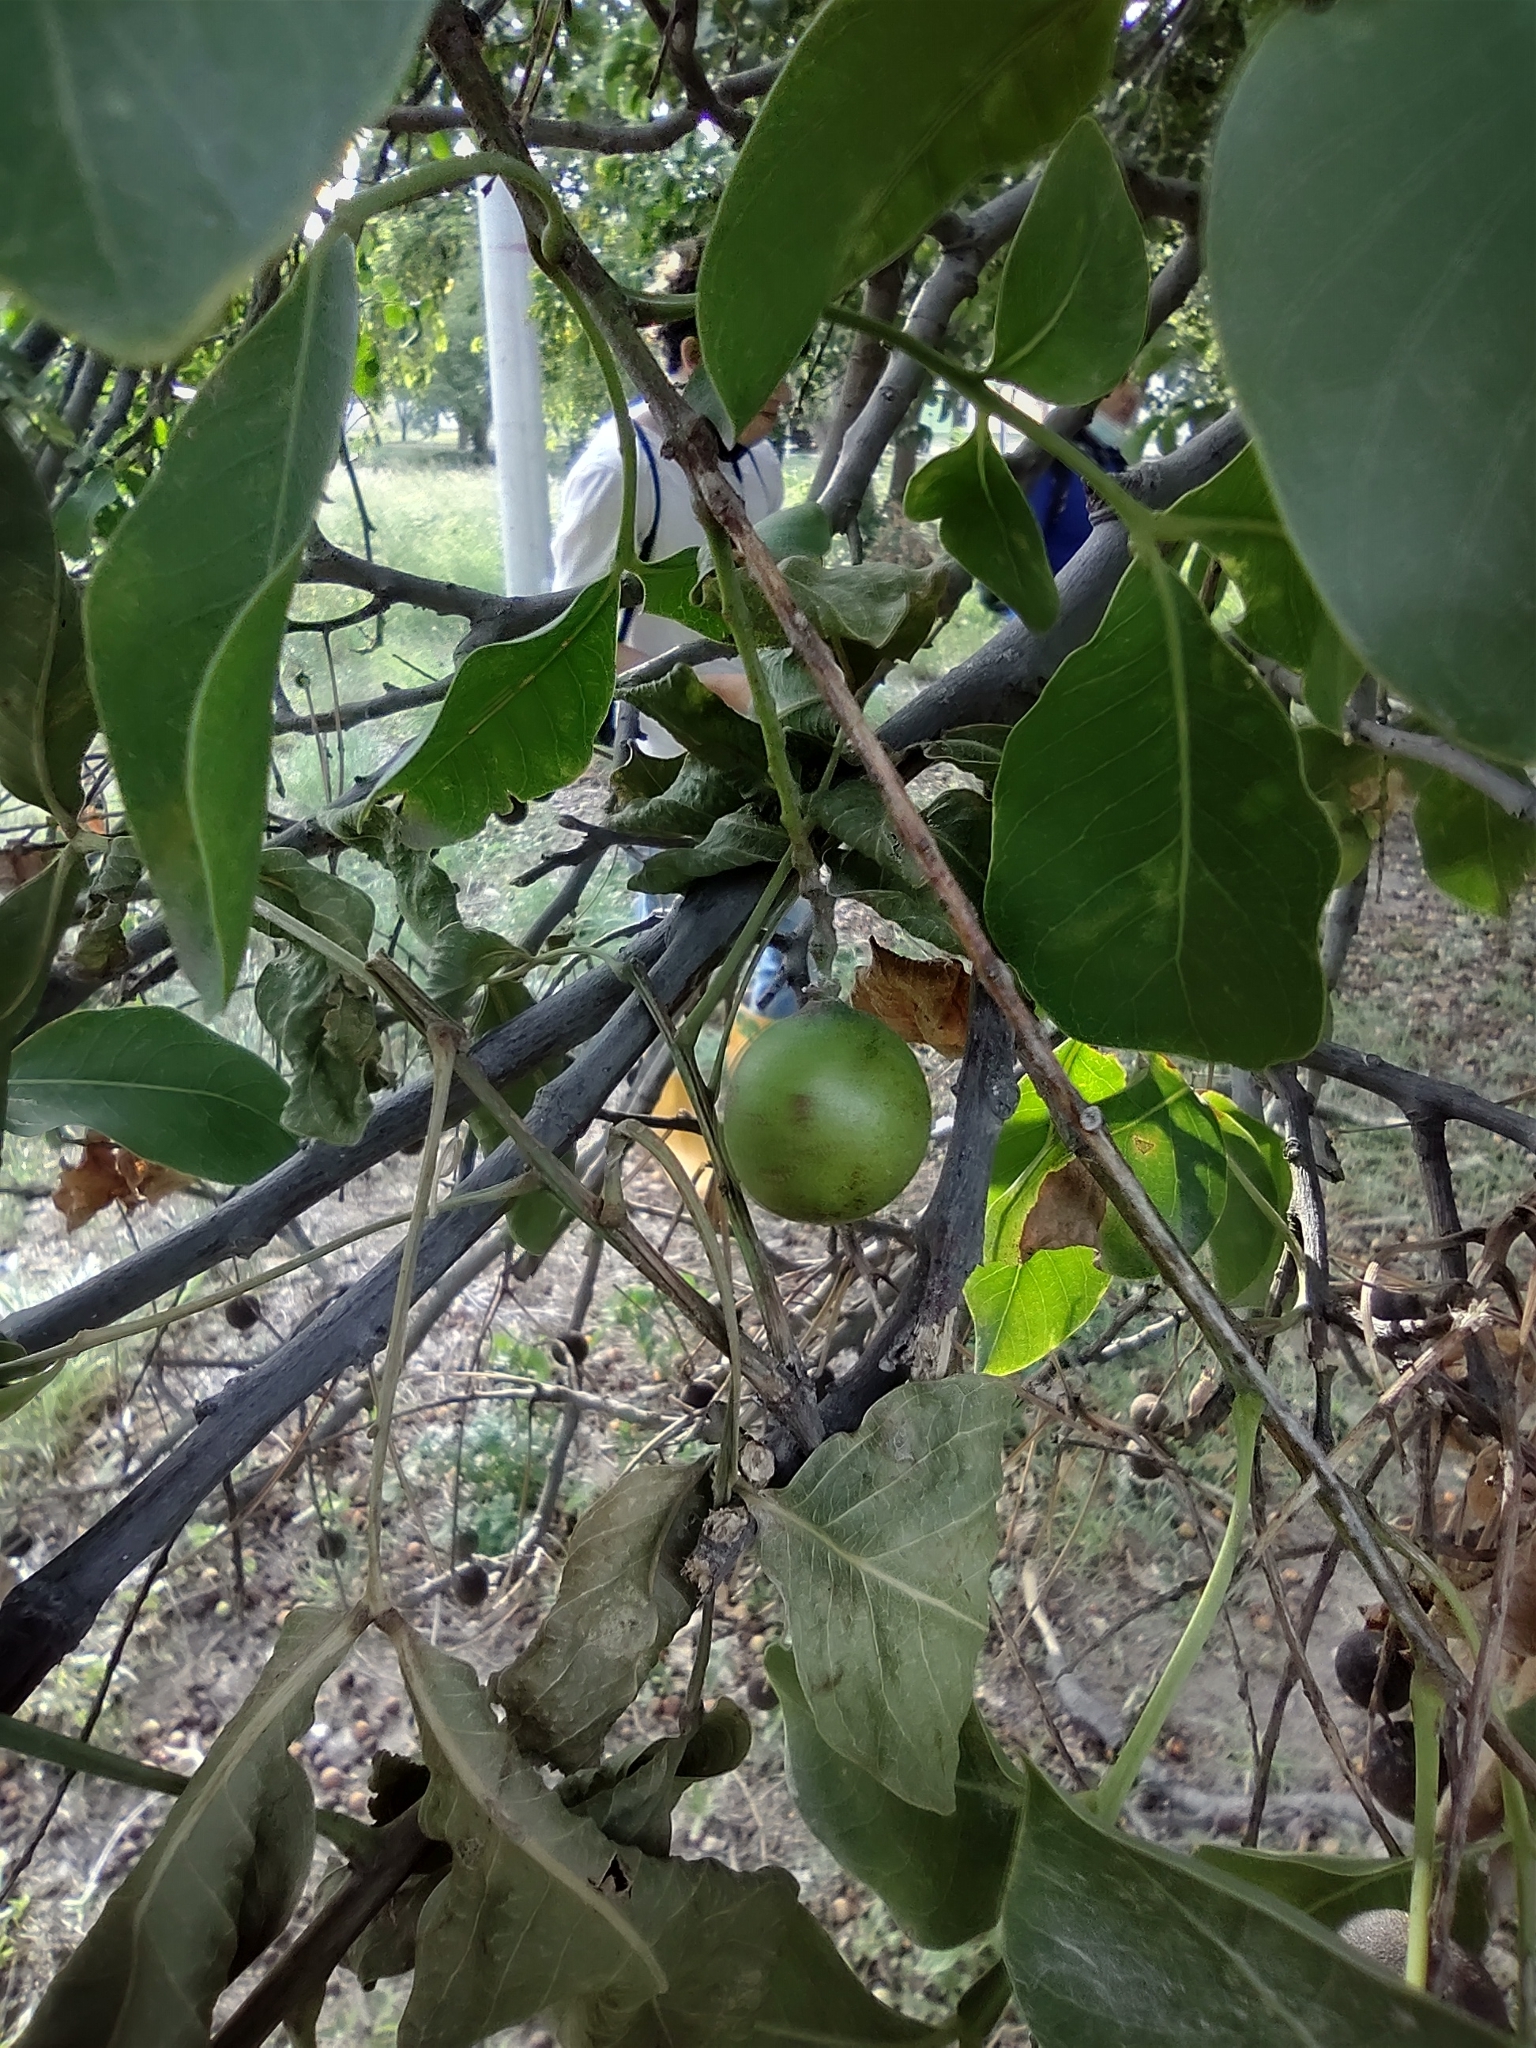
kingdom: Plantae
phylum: Tracheophyta
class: Magnoliopsida
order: Sapindales
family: Sapindaceae
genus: Melicoccus
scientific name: Melicoccus bijugatus
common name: Spanish lime
